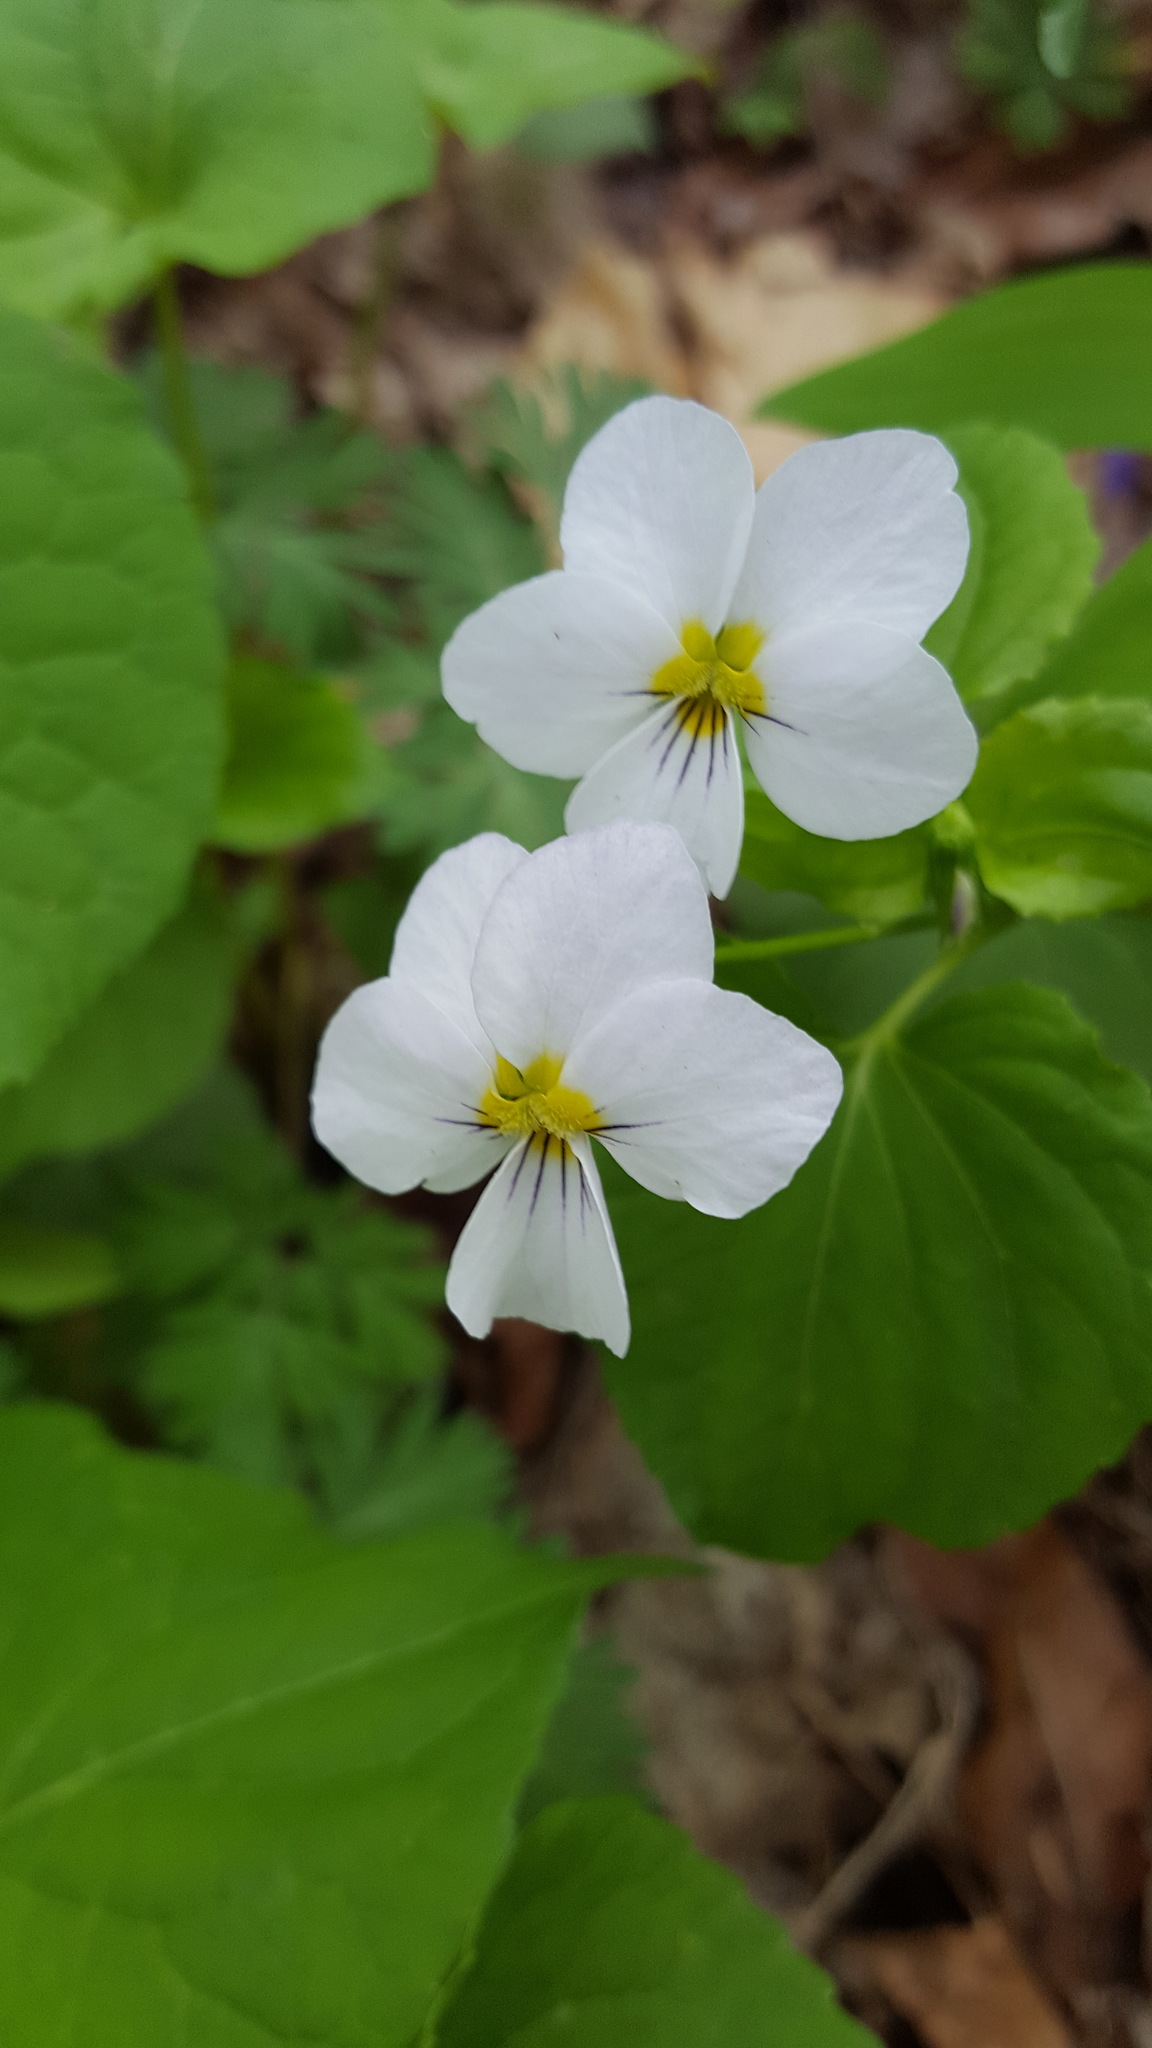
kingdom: Plantae
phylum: Tracheophyta
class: Magnoliopsida
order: Malpighiales
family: Violaceae
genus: Viola
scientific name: Viola canadensis
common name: Canada violet
